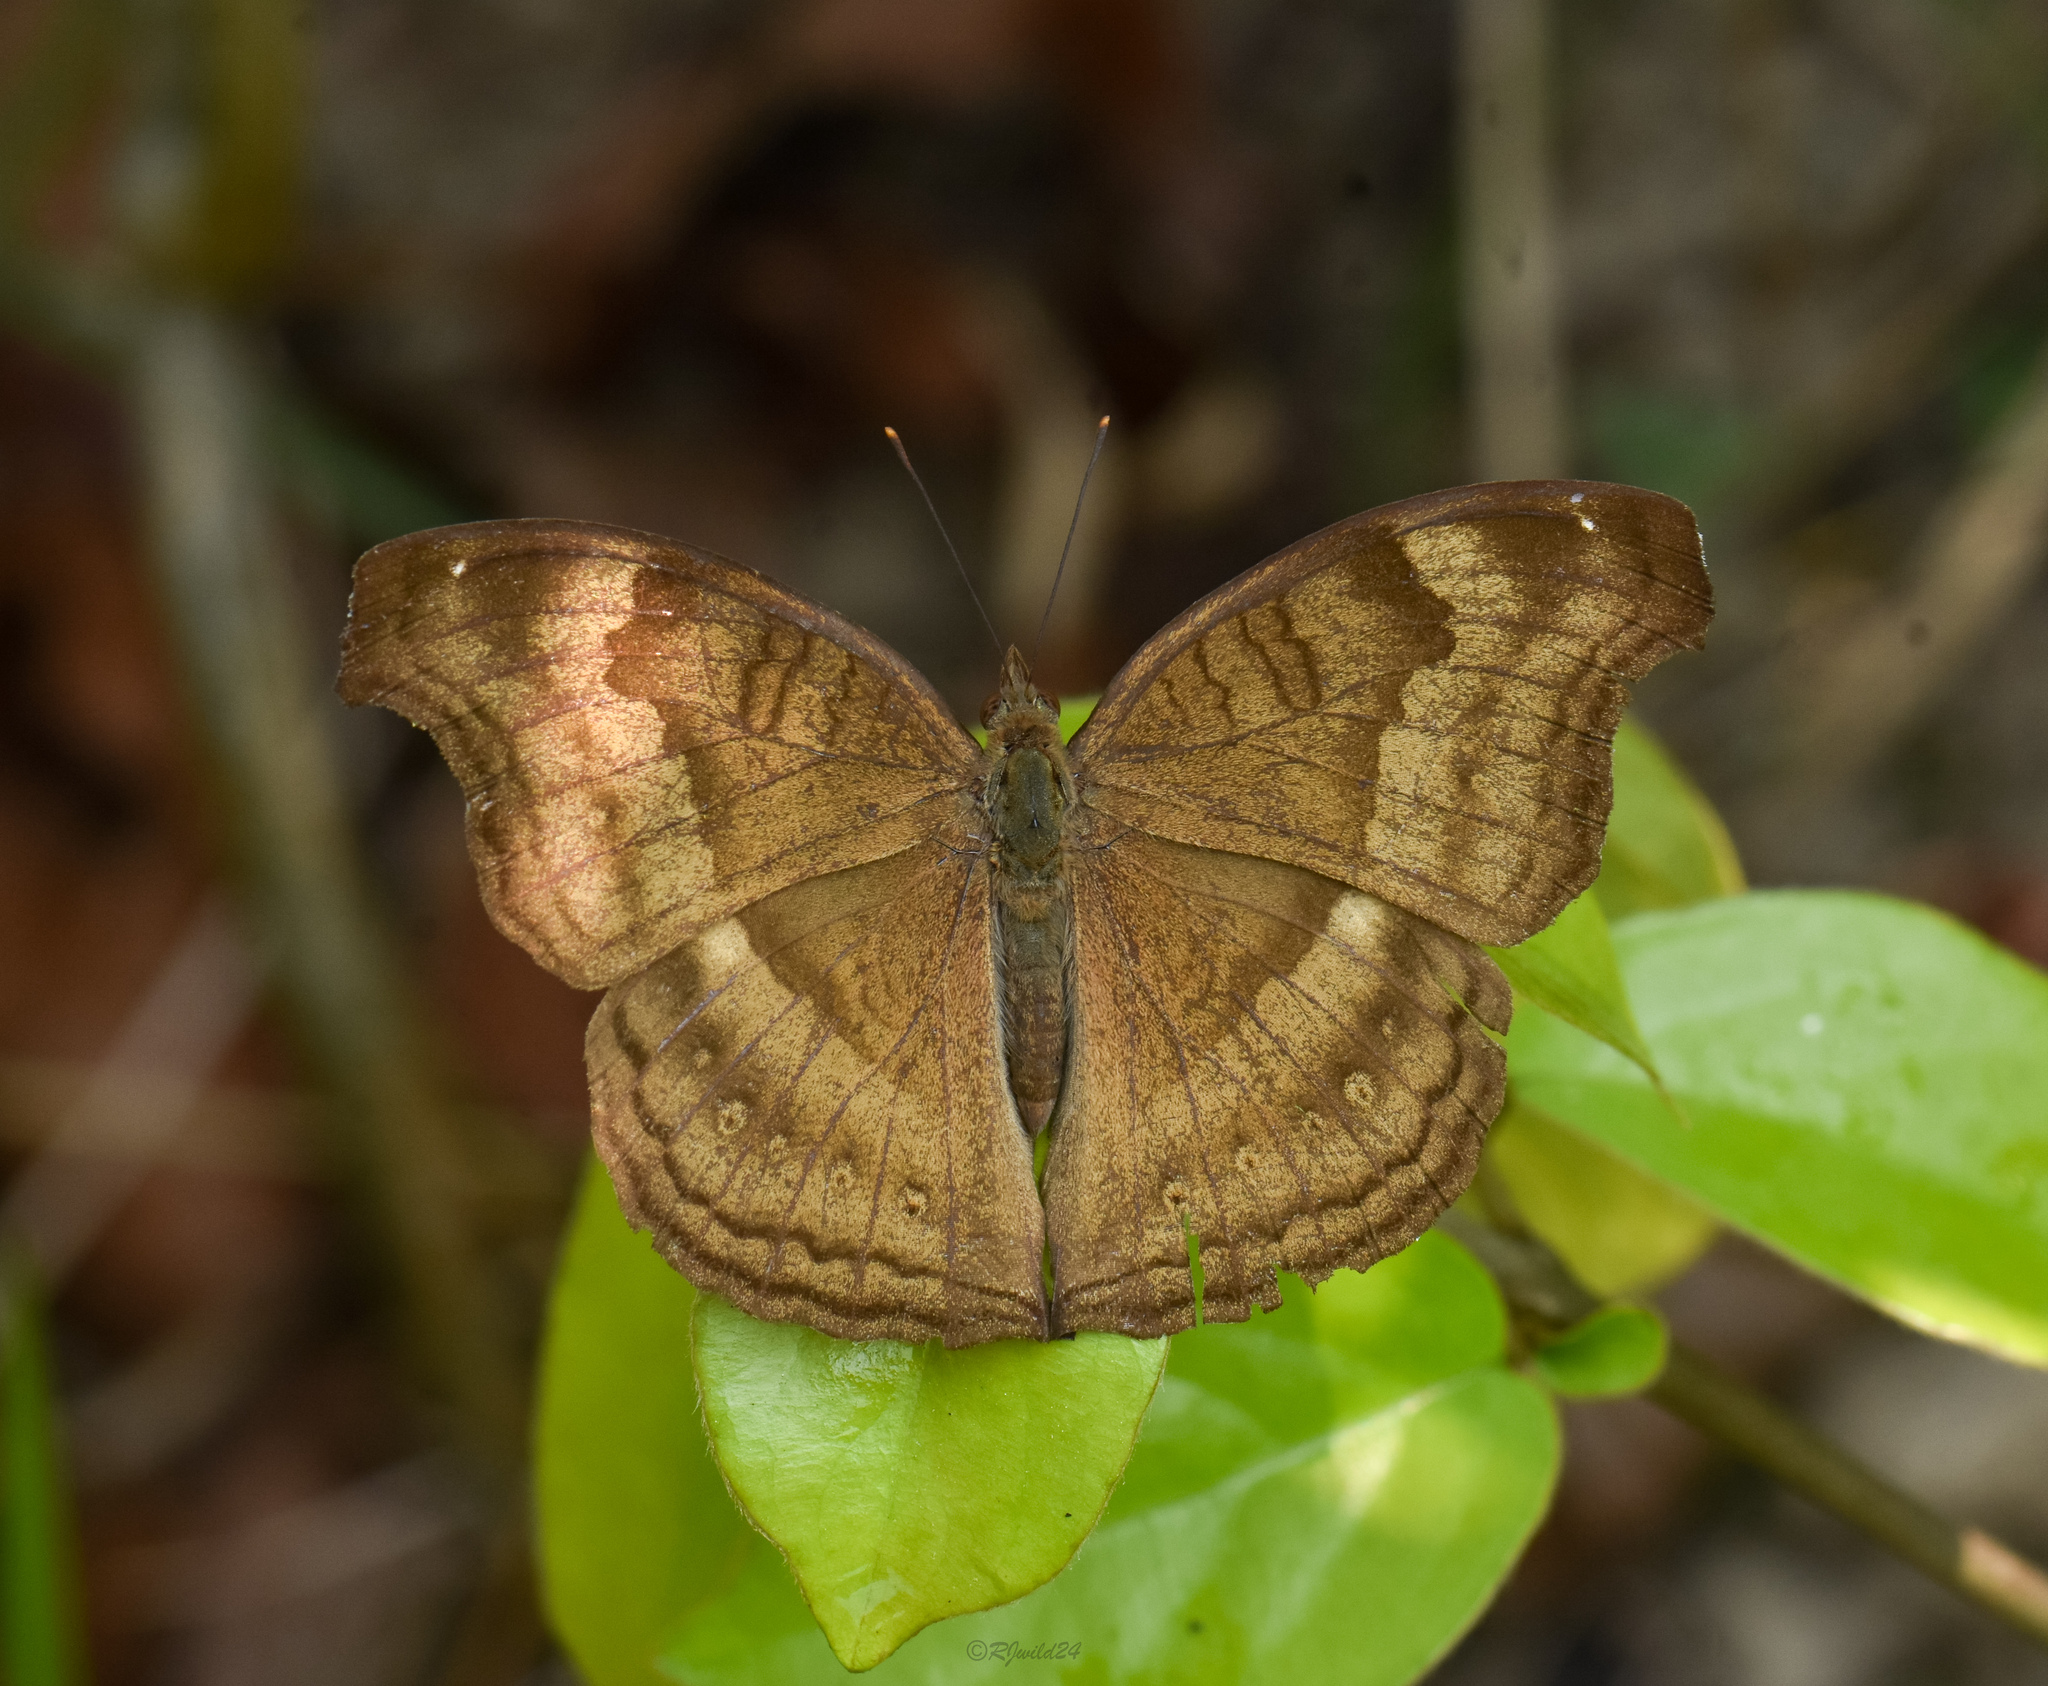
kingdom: Animalia
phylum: Arthropoda
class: Insecta
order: Lepidoptera
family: Nymphalidae
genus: Junonia
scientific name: Junonia iphita
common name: Chocolate pansy
